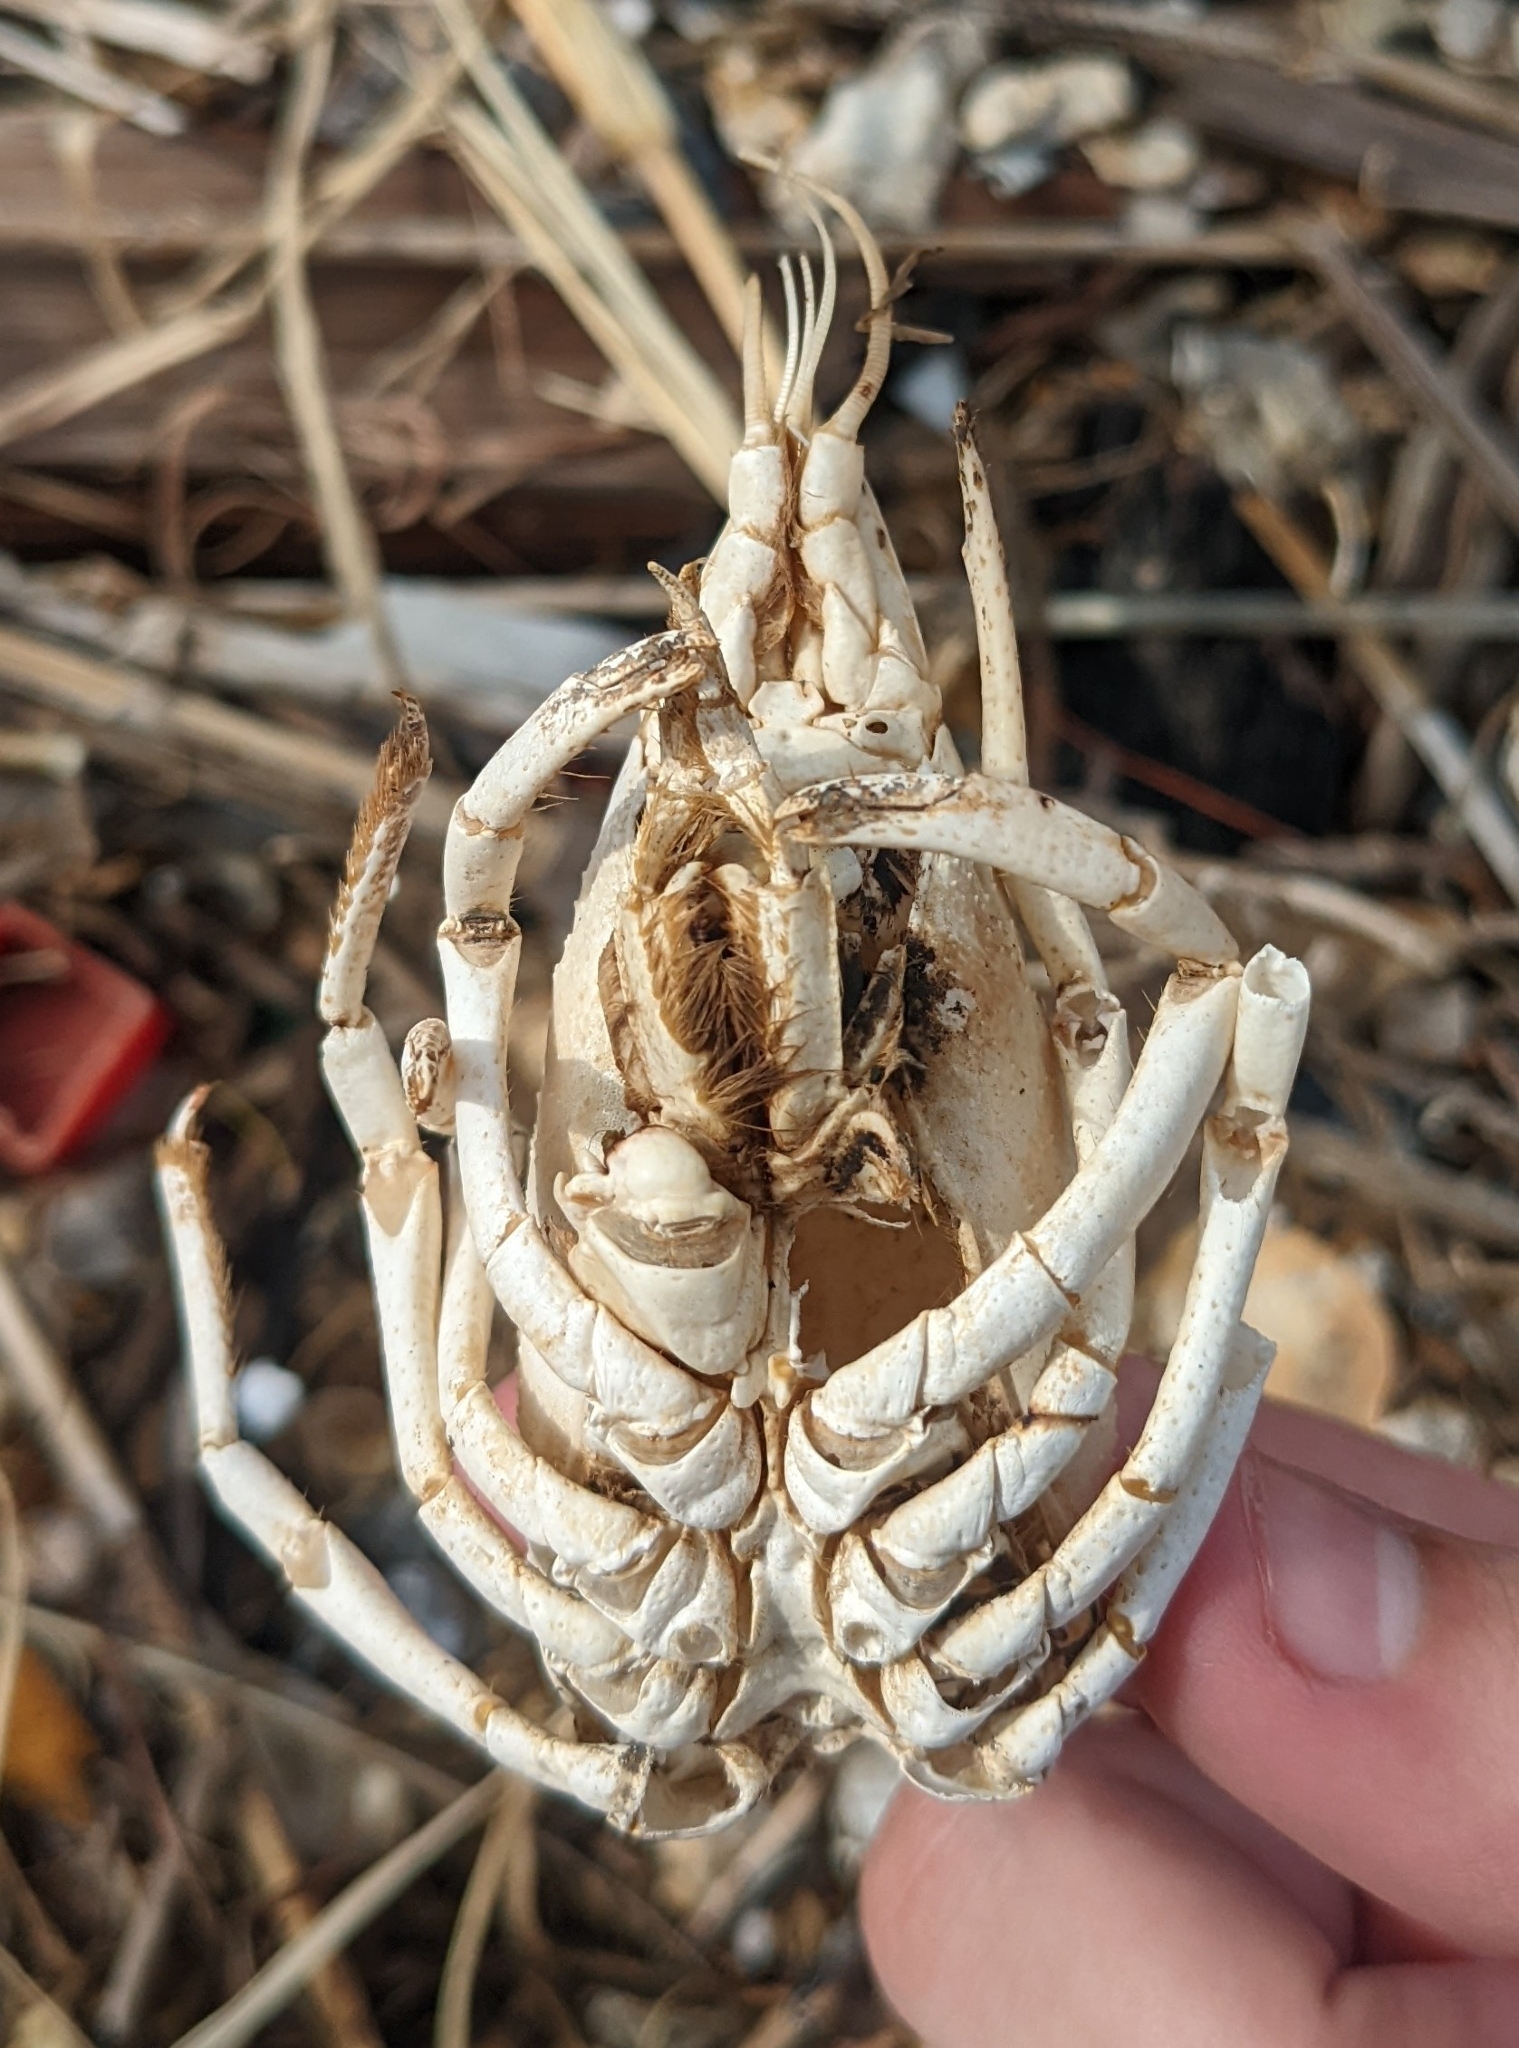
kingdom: Animalia
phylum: Arthropoda
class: Malacostraca
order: Decapoda
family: Cambaridae
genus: Procambarus
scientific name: Procambarus clarkii
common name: Red swamp crayfish
